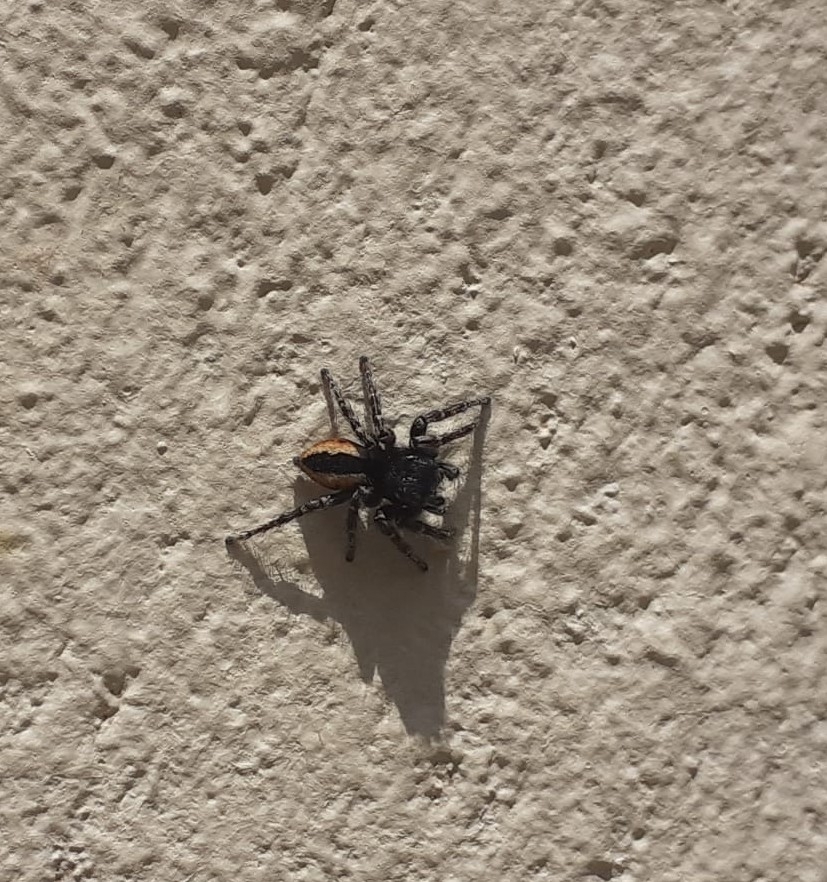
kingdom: Animalia
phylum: Arthropoda
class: Arachnida
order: Araneae
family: Salticidae
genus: Philaeus
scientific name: Philaeus chrysops
